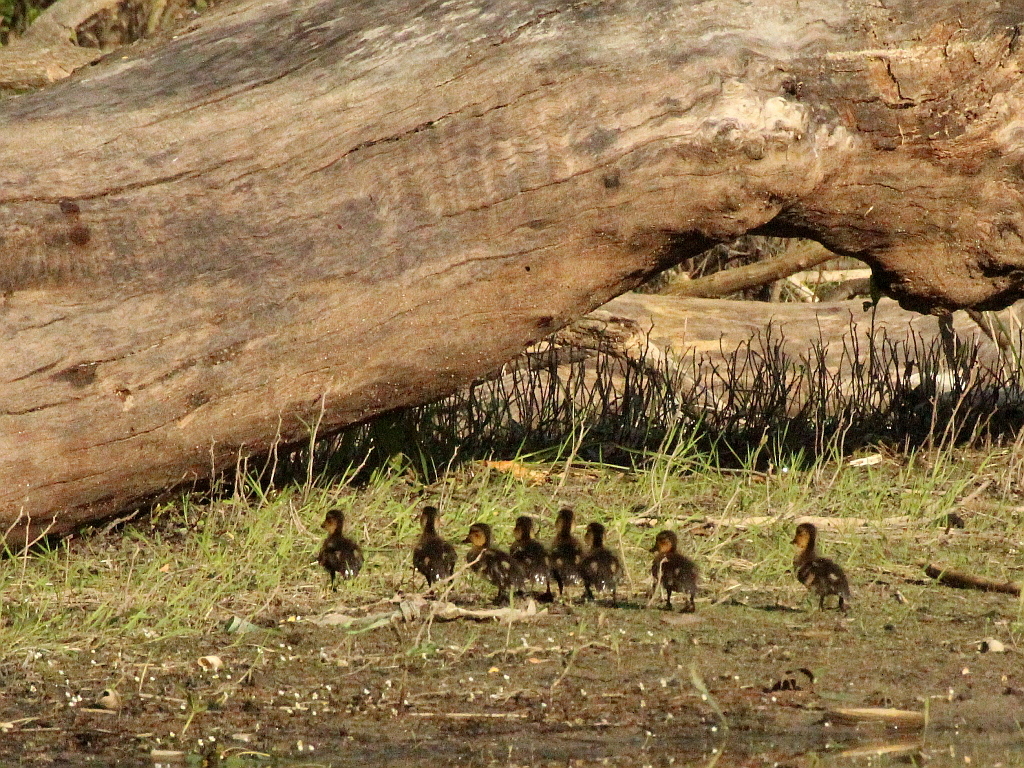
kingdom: Animalia
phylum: Chordata
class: Aves
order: Anseriformes
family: Anatidae
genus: Anas
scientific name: Anas platyrhynchos
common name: Mallard
